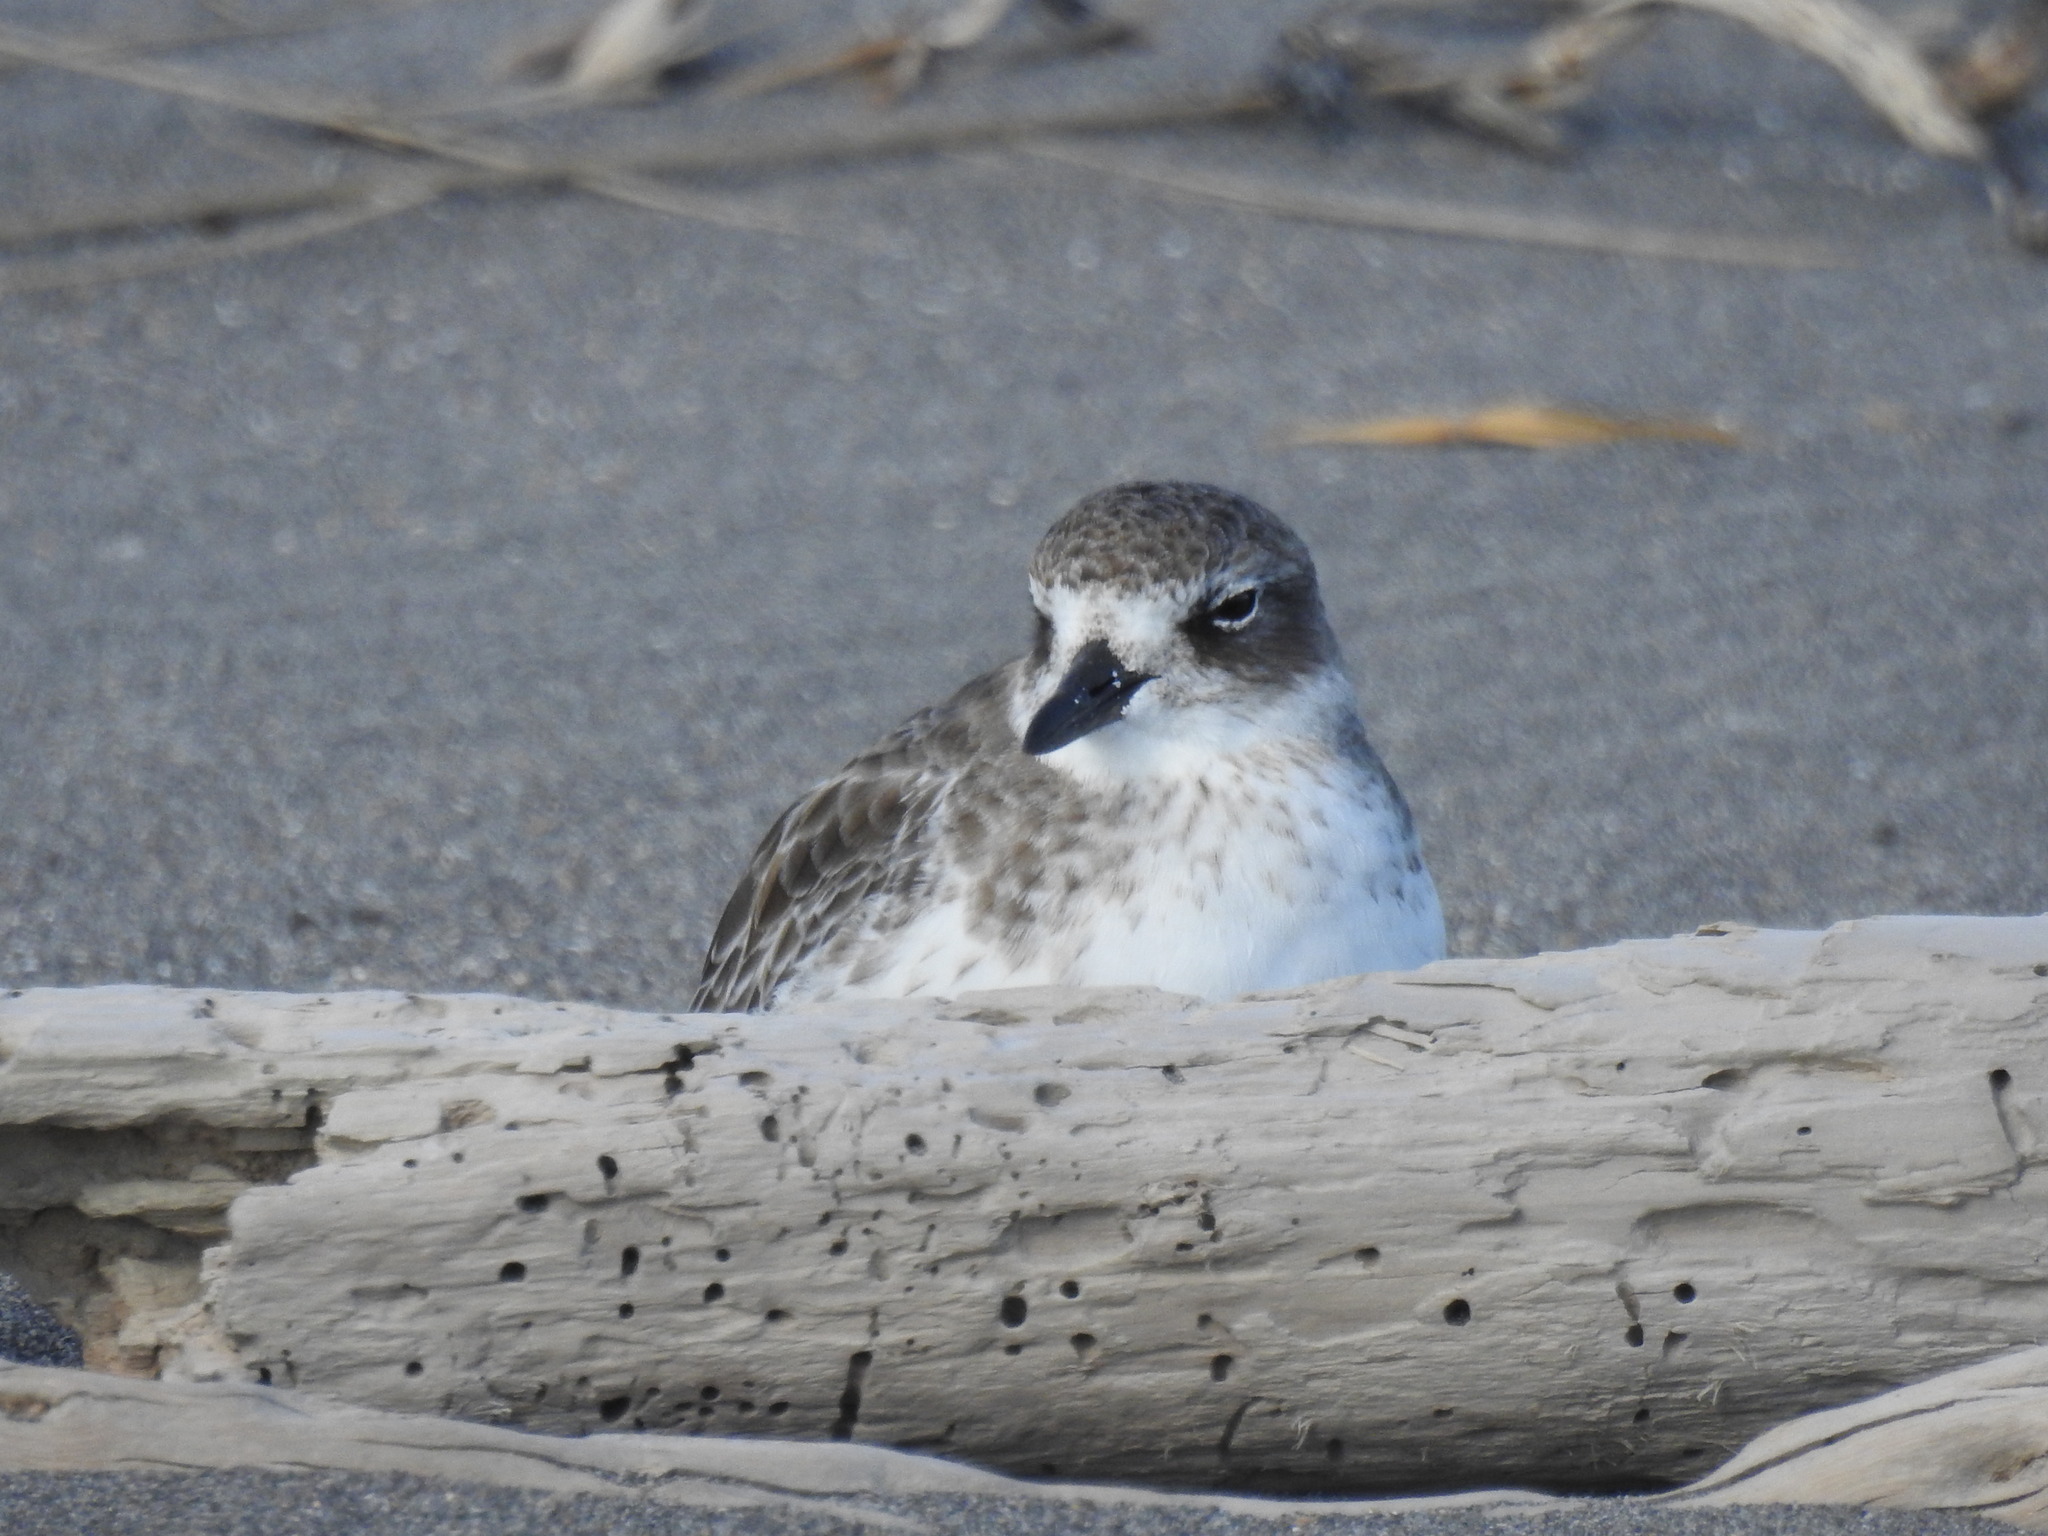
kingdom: Animalia
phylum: Chordata
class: Aves
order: Charadriiformes
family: Charadriidae
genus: Anarhynchus
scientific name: Anarhynchus
